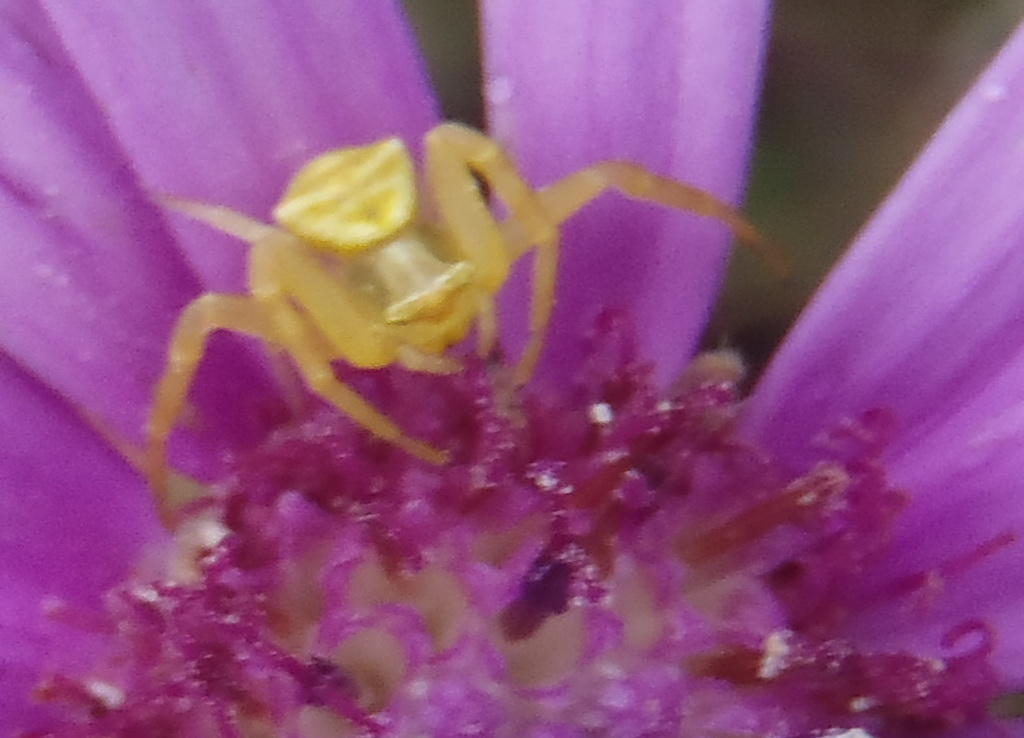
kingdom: Animalia
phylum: Arthropoda
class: Arachnida
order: Araneae
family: Thomisidae
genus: Thomisus
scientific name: Thomisus australis
